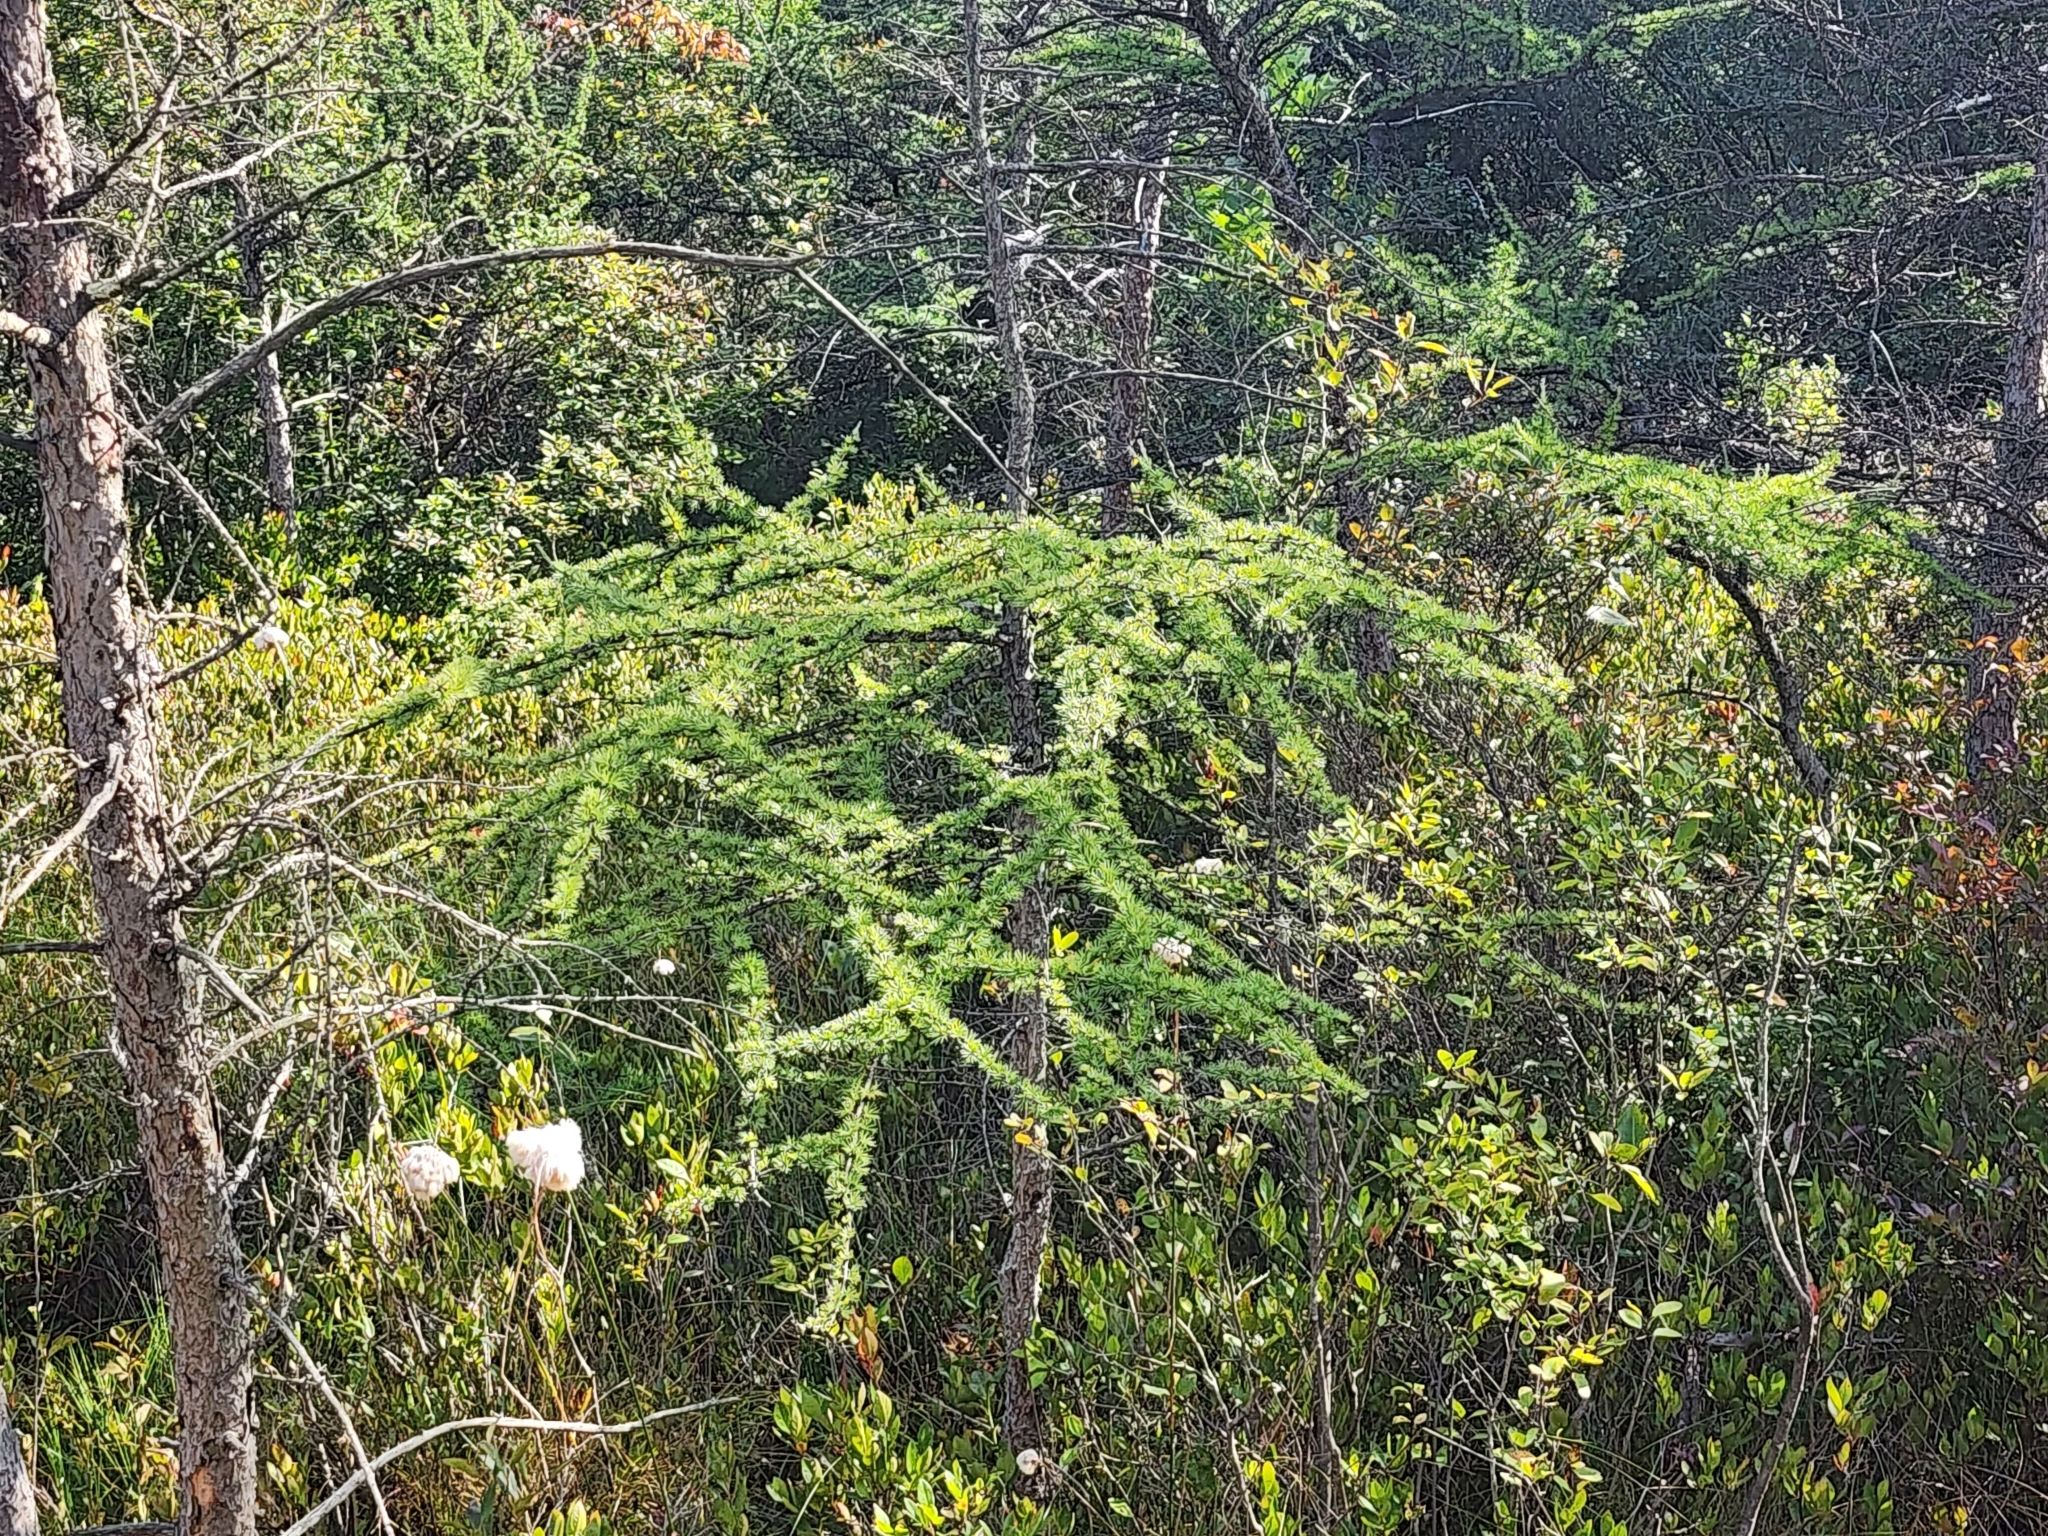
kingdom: Plantae
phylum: Tracheophyta
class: Pinopsida
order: Pinales
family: Pinaceae
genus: Larix
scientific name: Larix laricina
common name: American larch
